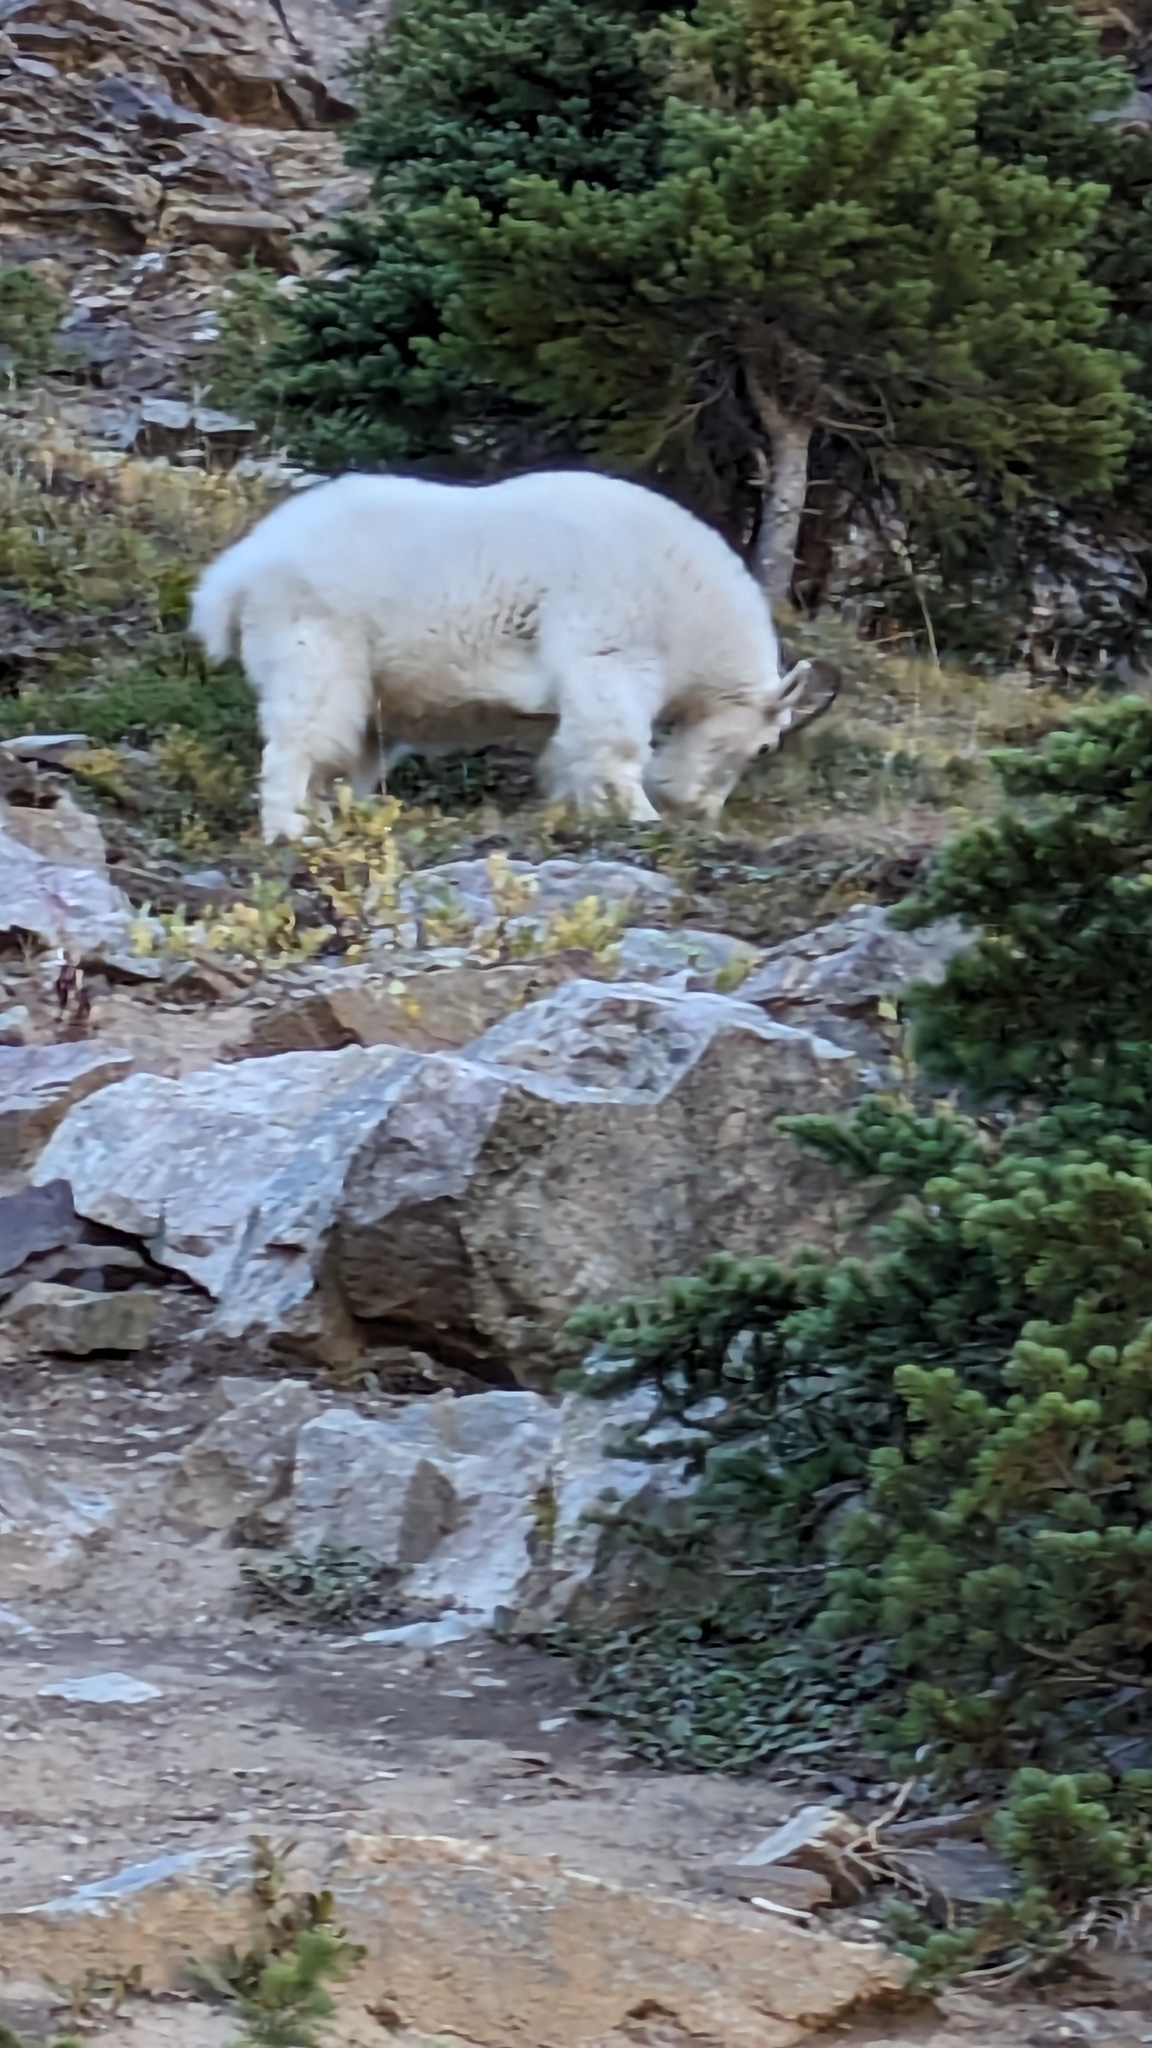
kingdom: Animalia
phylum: Chordata
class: Mammalia
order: Artiodactyla
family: Bovidae
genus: Oreamnos
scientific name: Oreamnos americanus
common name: Mountain goat
